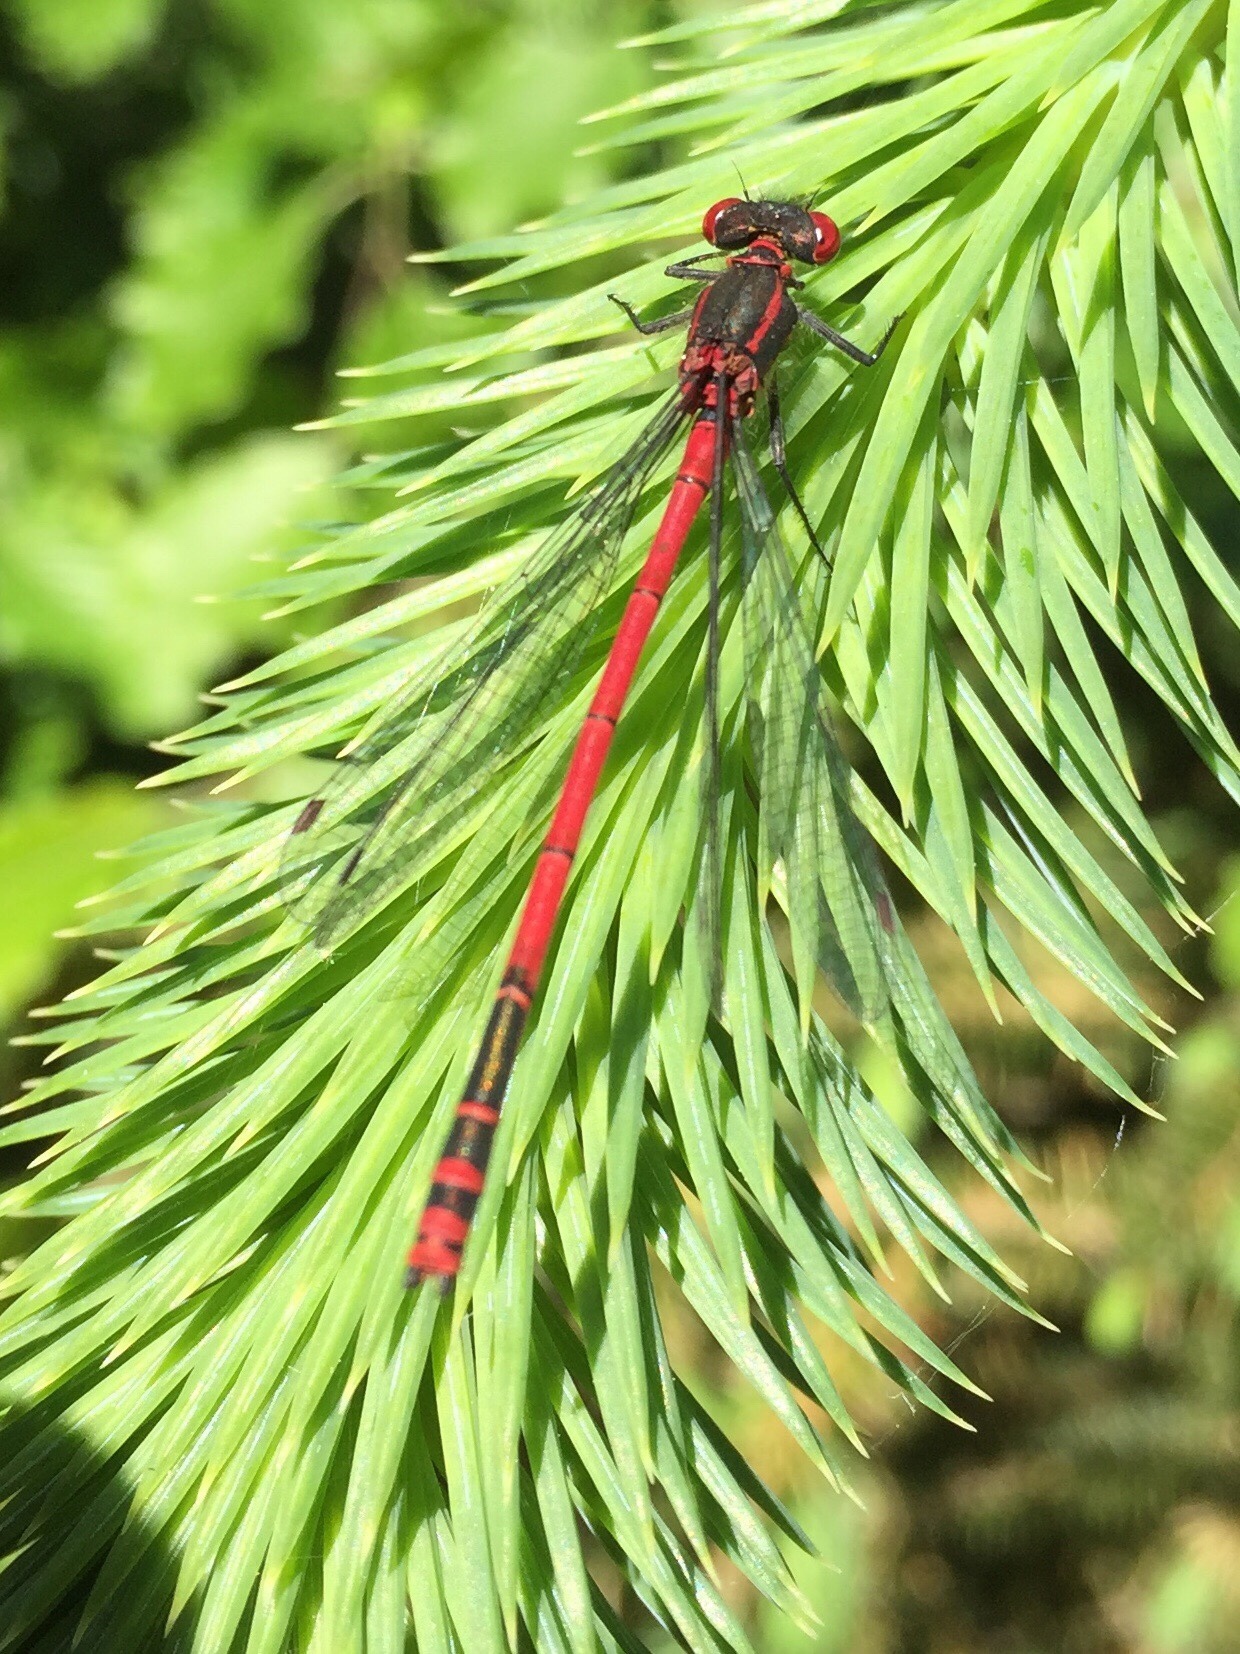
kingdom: Animalia
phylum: Arthropoda
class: Insecta
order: Odonata
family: Coenagrionidae
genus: Pyrrhosoma
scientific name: Pyrrhosoma nymphula
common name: Large red damsel
